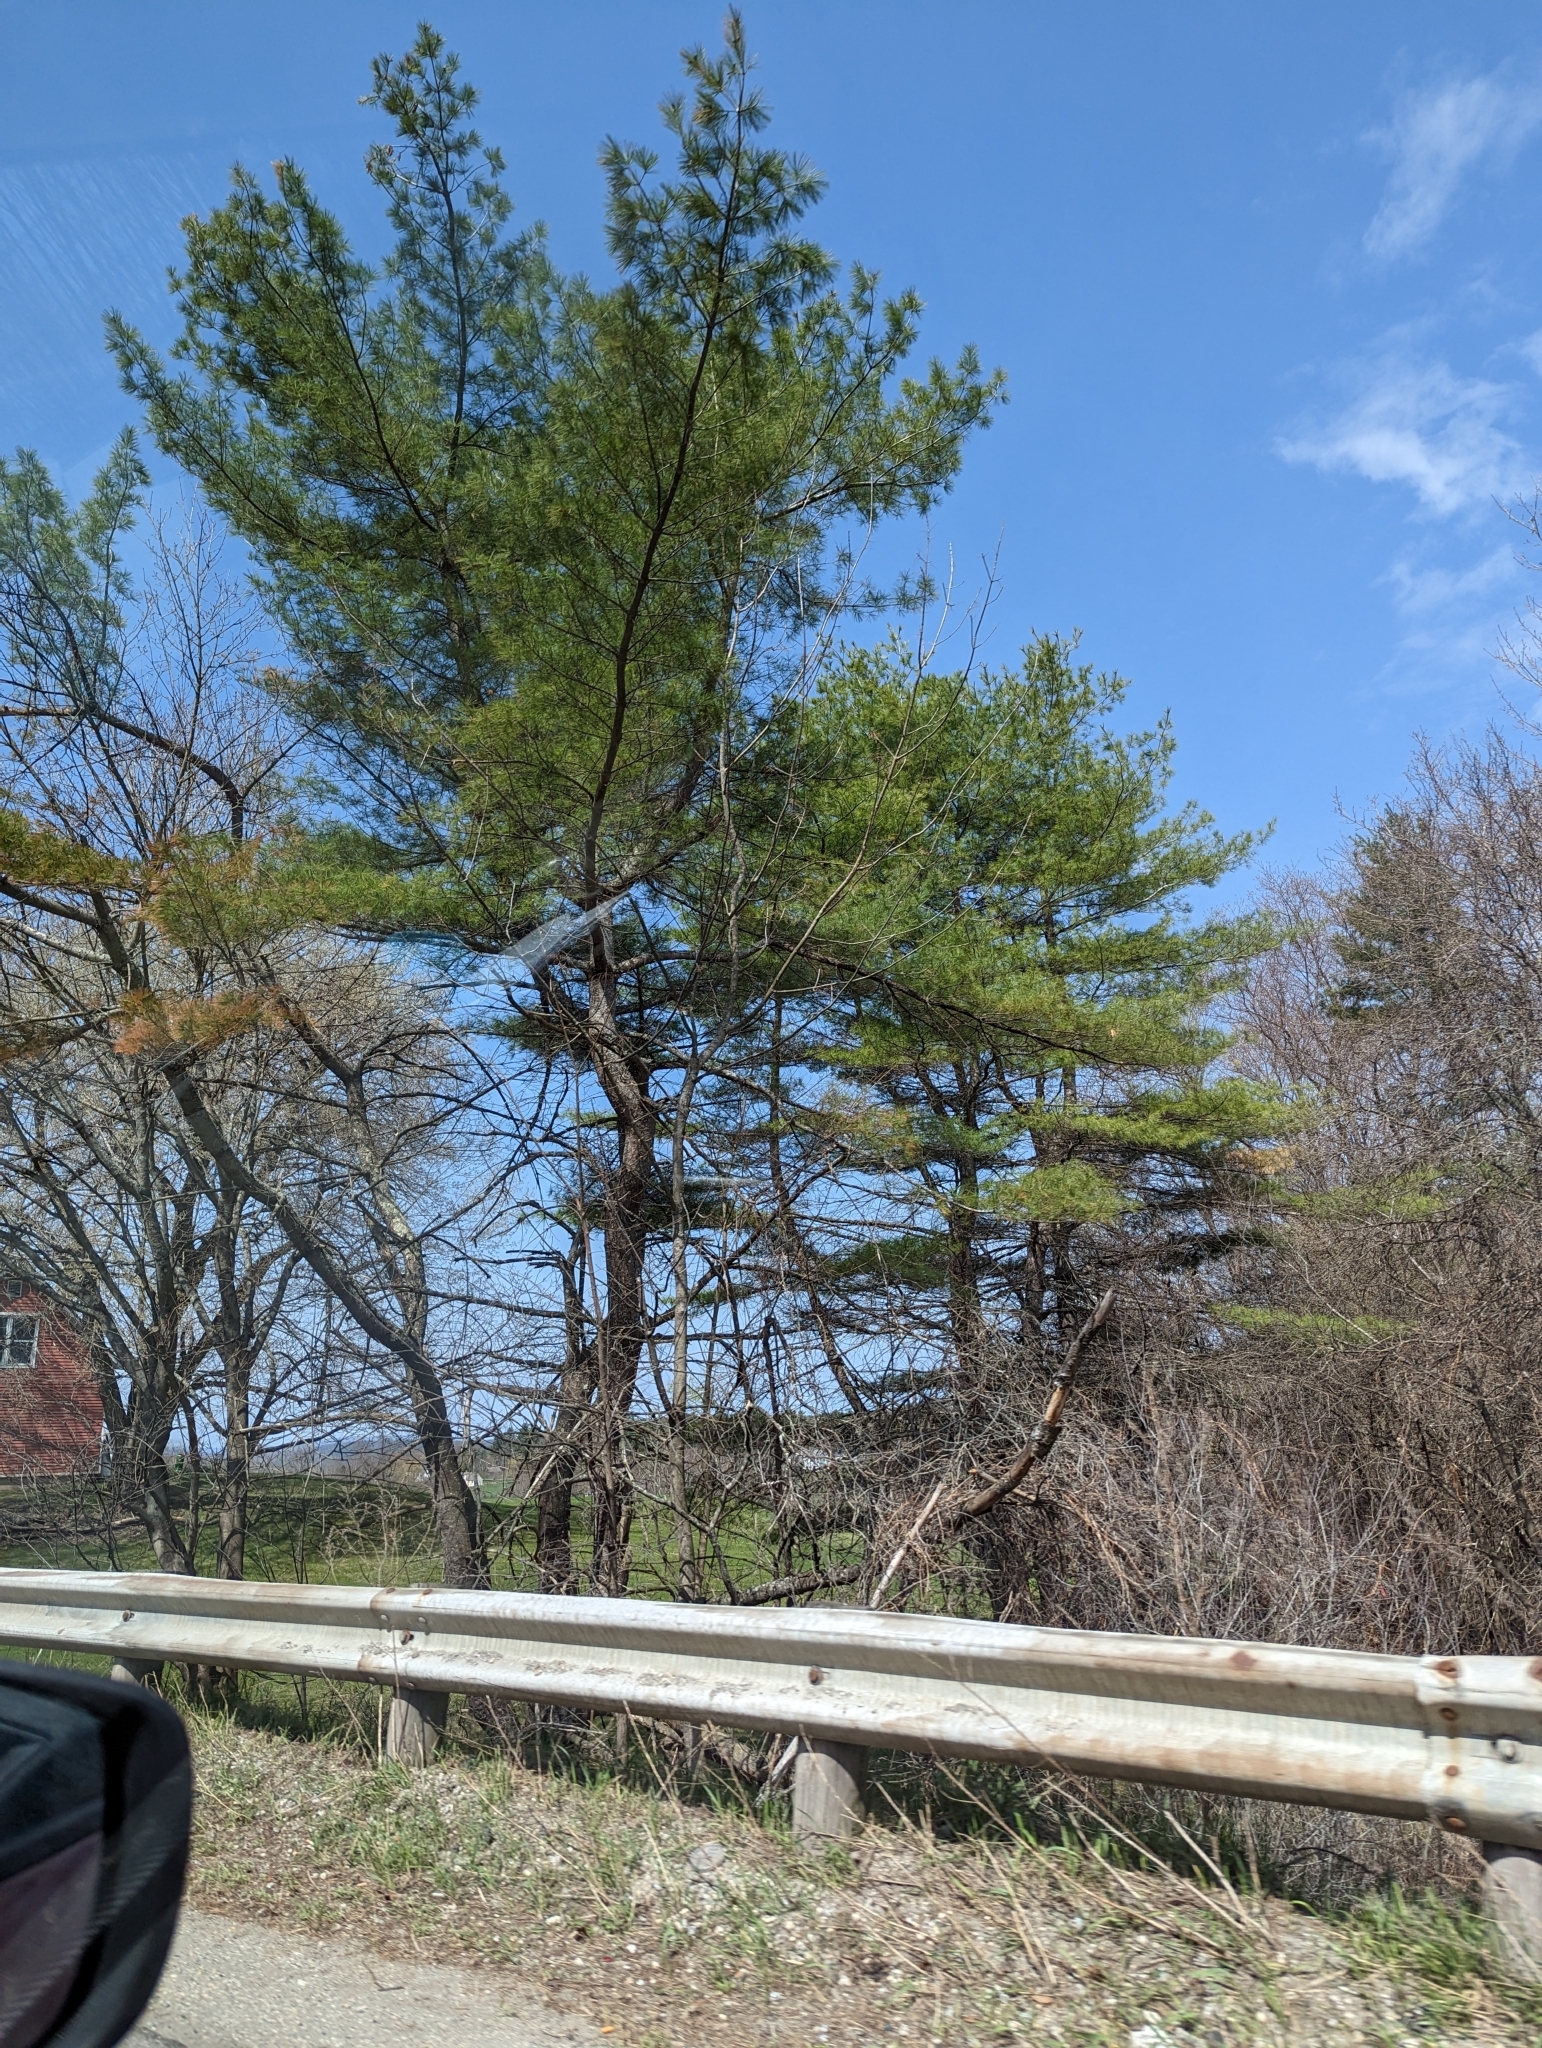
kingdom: Plantae
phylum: Tracheophyta
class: Pinopsida
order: Pinales
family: Pinaceae
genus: Pinus
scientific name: Pinus strobus
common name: Weymouth pine
